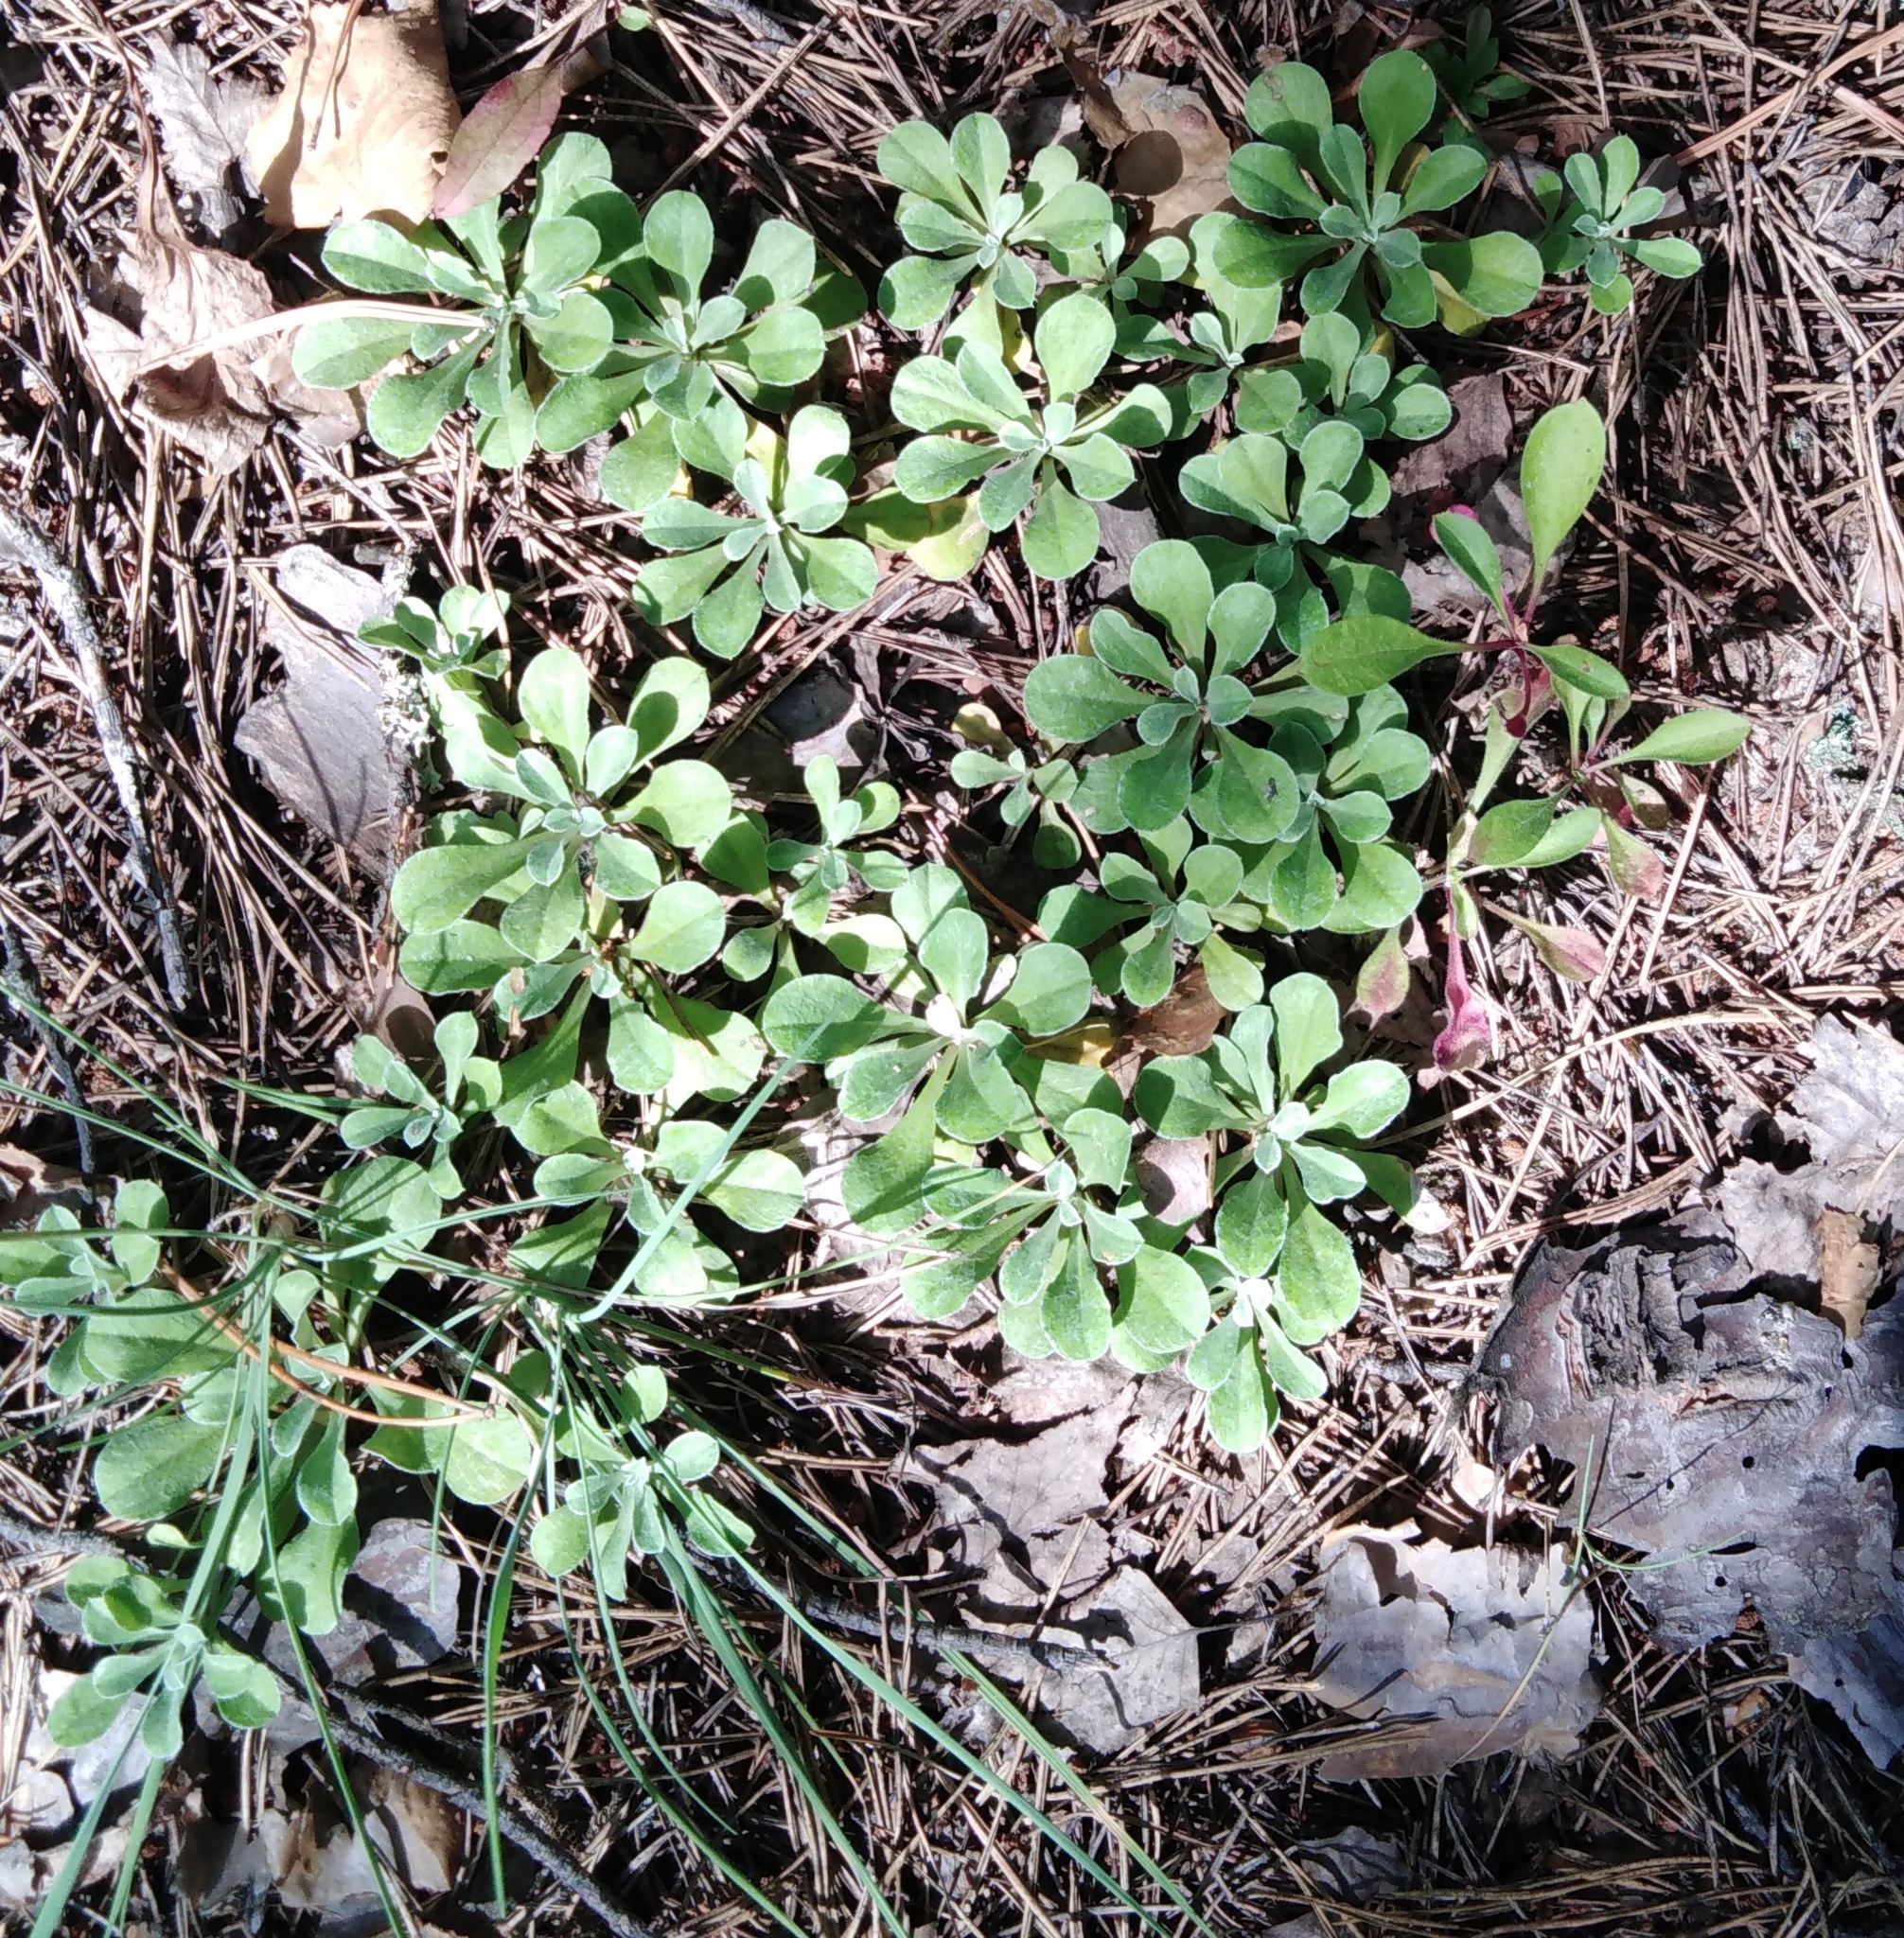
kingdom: Plantae
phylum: Tracheophyta
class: Magnoliopsida
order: Asterales
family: Asteraceae
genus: Antennaria
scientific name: Antennaria dioica
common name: Mountain everlasting
